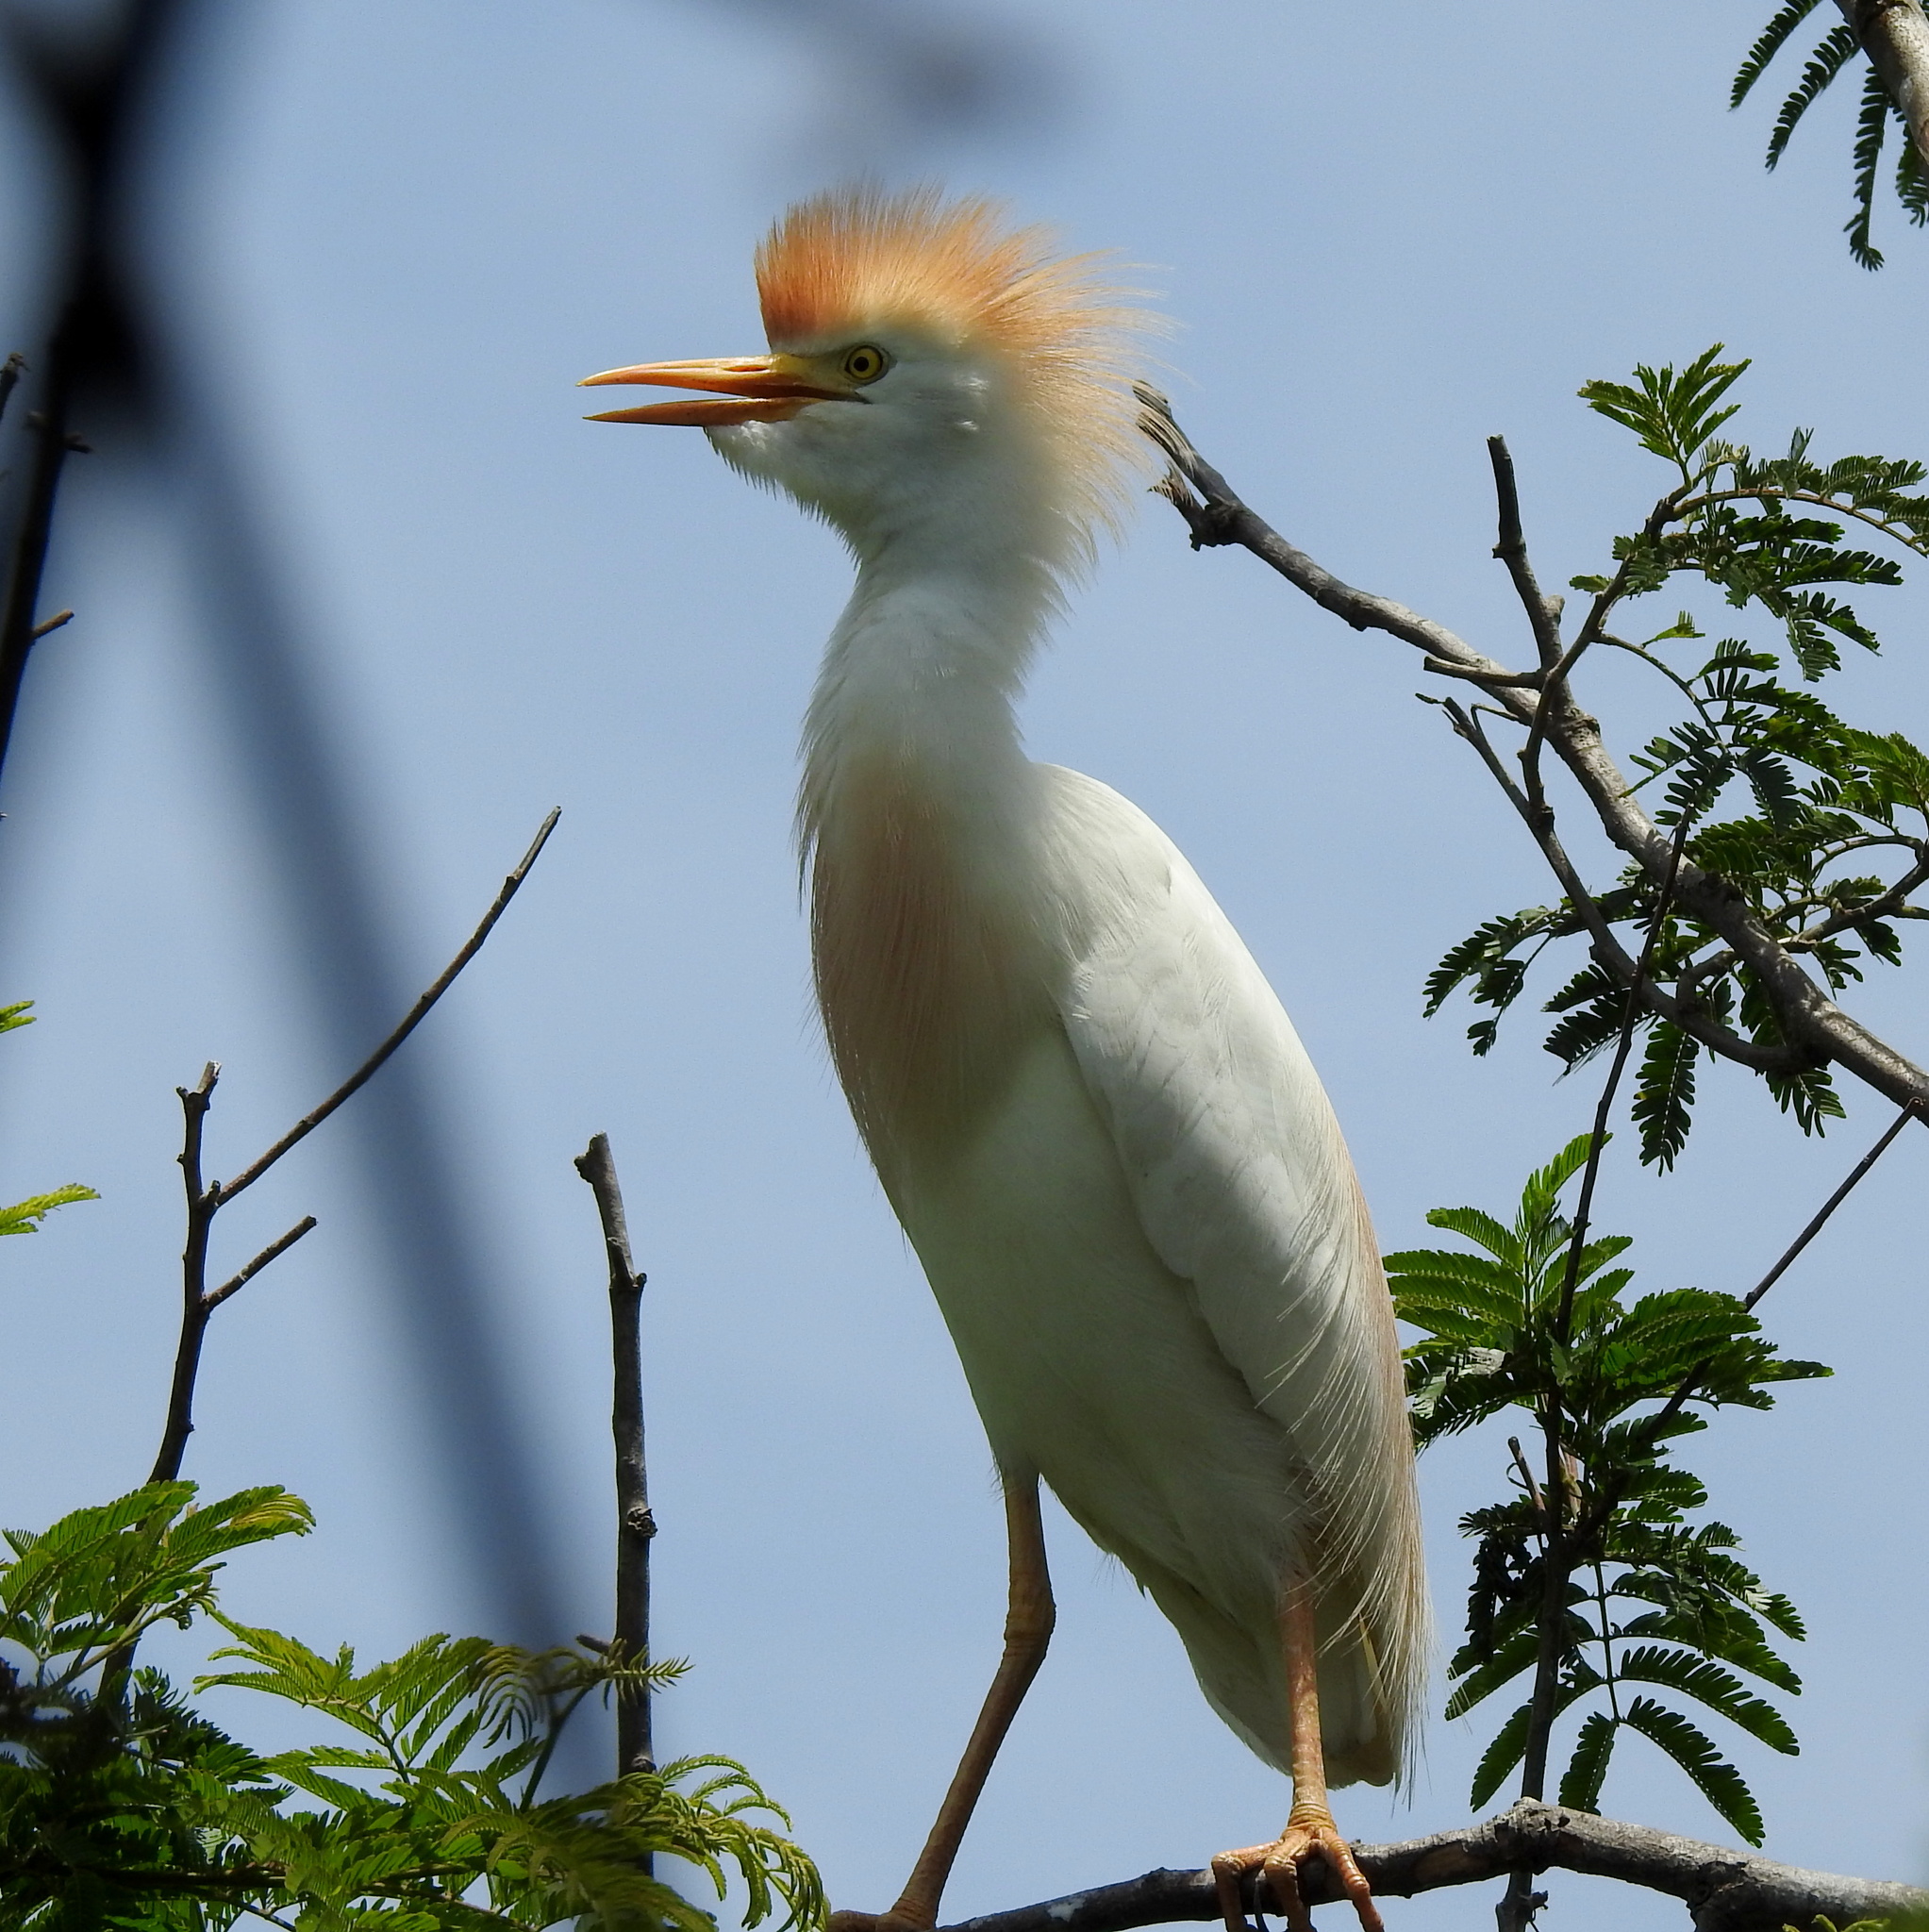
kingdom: Animalia
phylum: Chordata
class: Aves
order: Pelecaniformes
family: Ardeidae
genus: Bubulcus
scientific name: Bubulcus ibis
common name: Cattle egret
